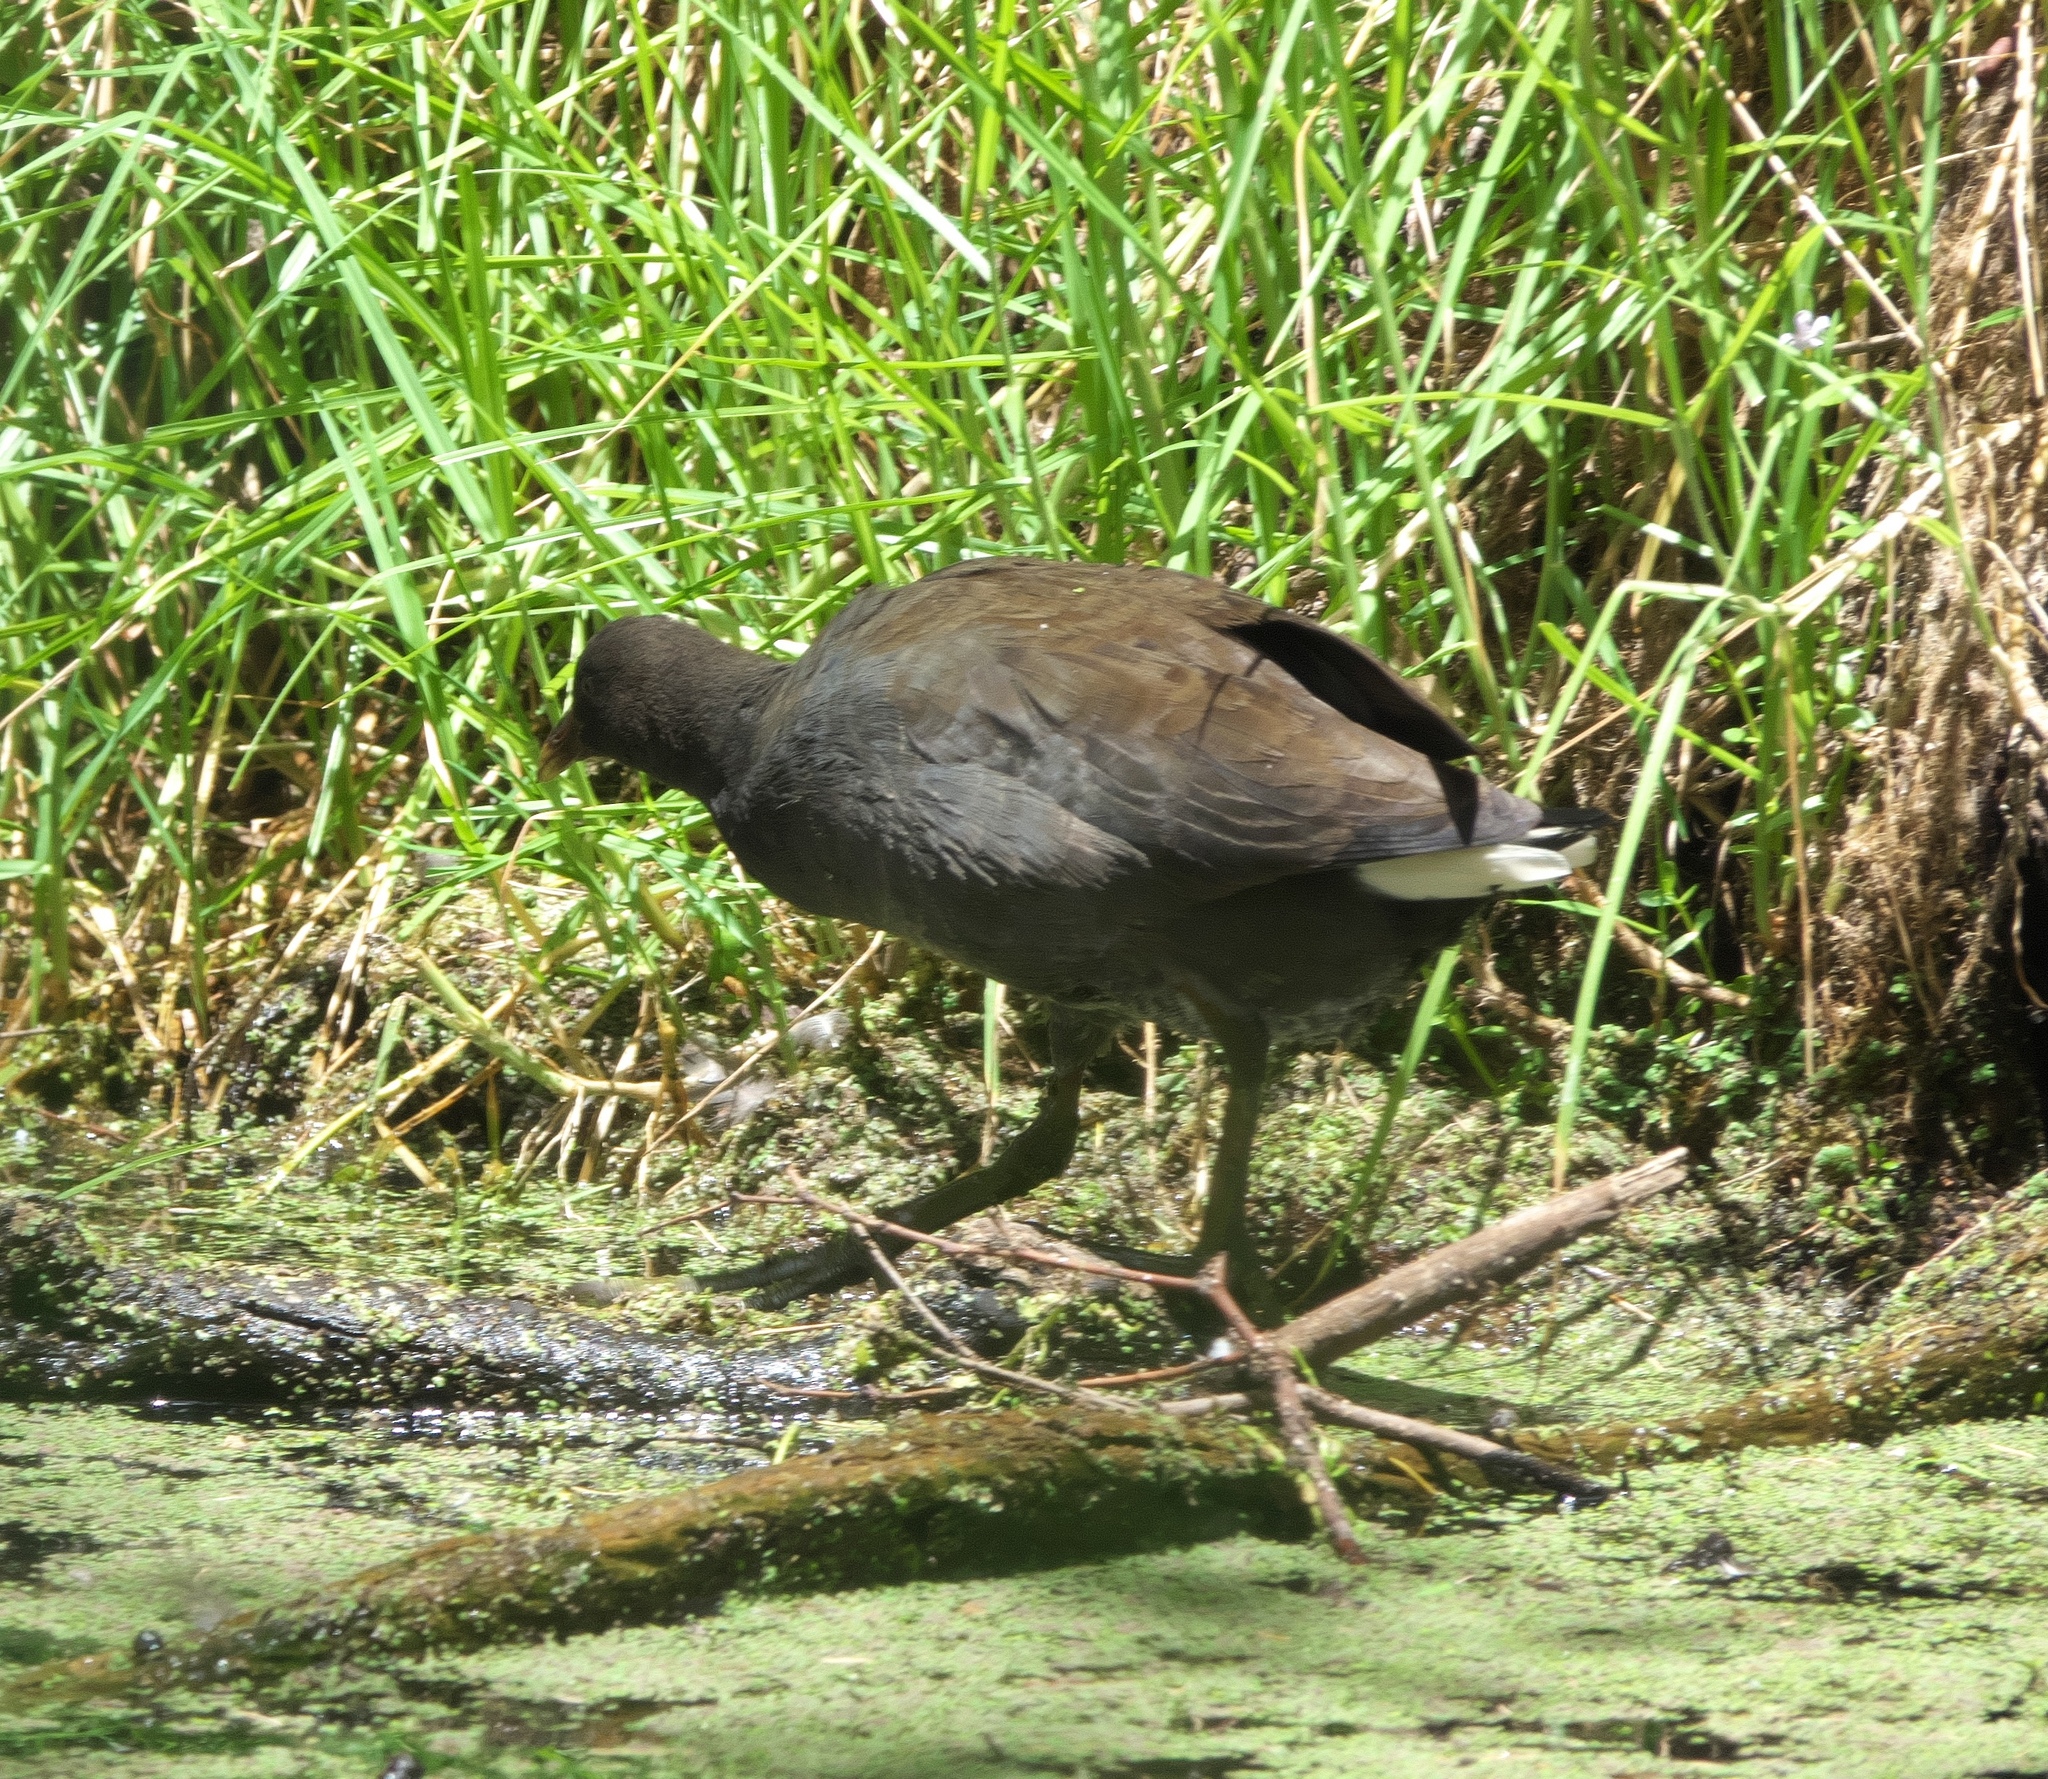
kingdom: Animalia
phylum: Chordata
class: Aves
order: Gruiformes
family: Rallidae
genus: Gallinula
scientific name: Gallinula tenebrosa
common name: Dusky moorhen
